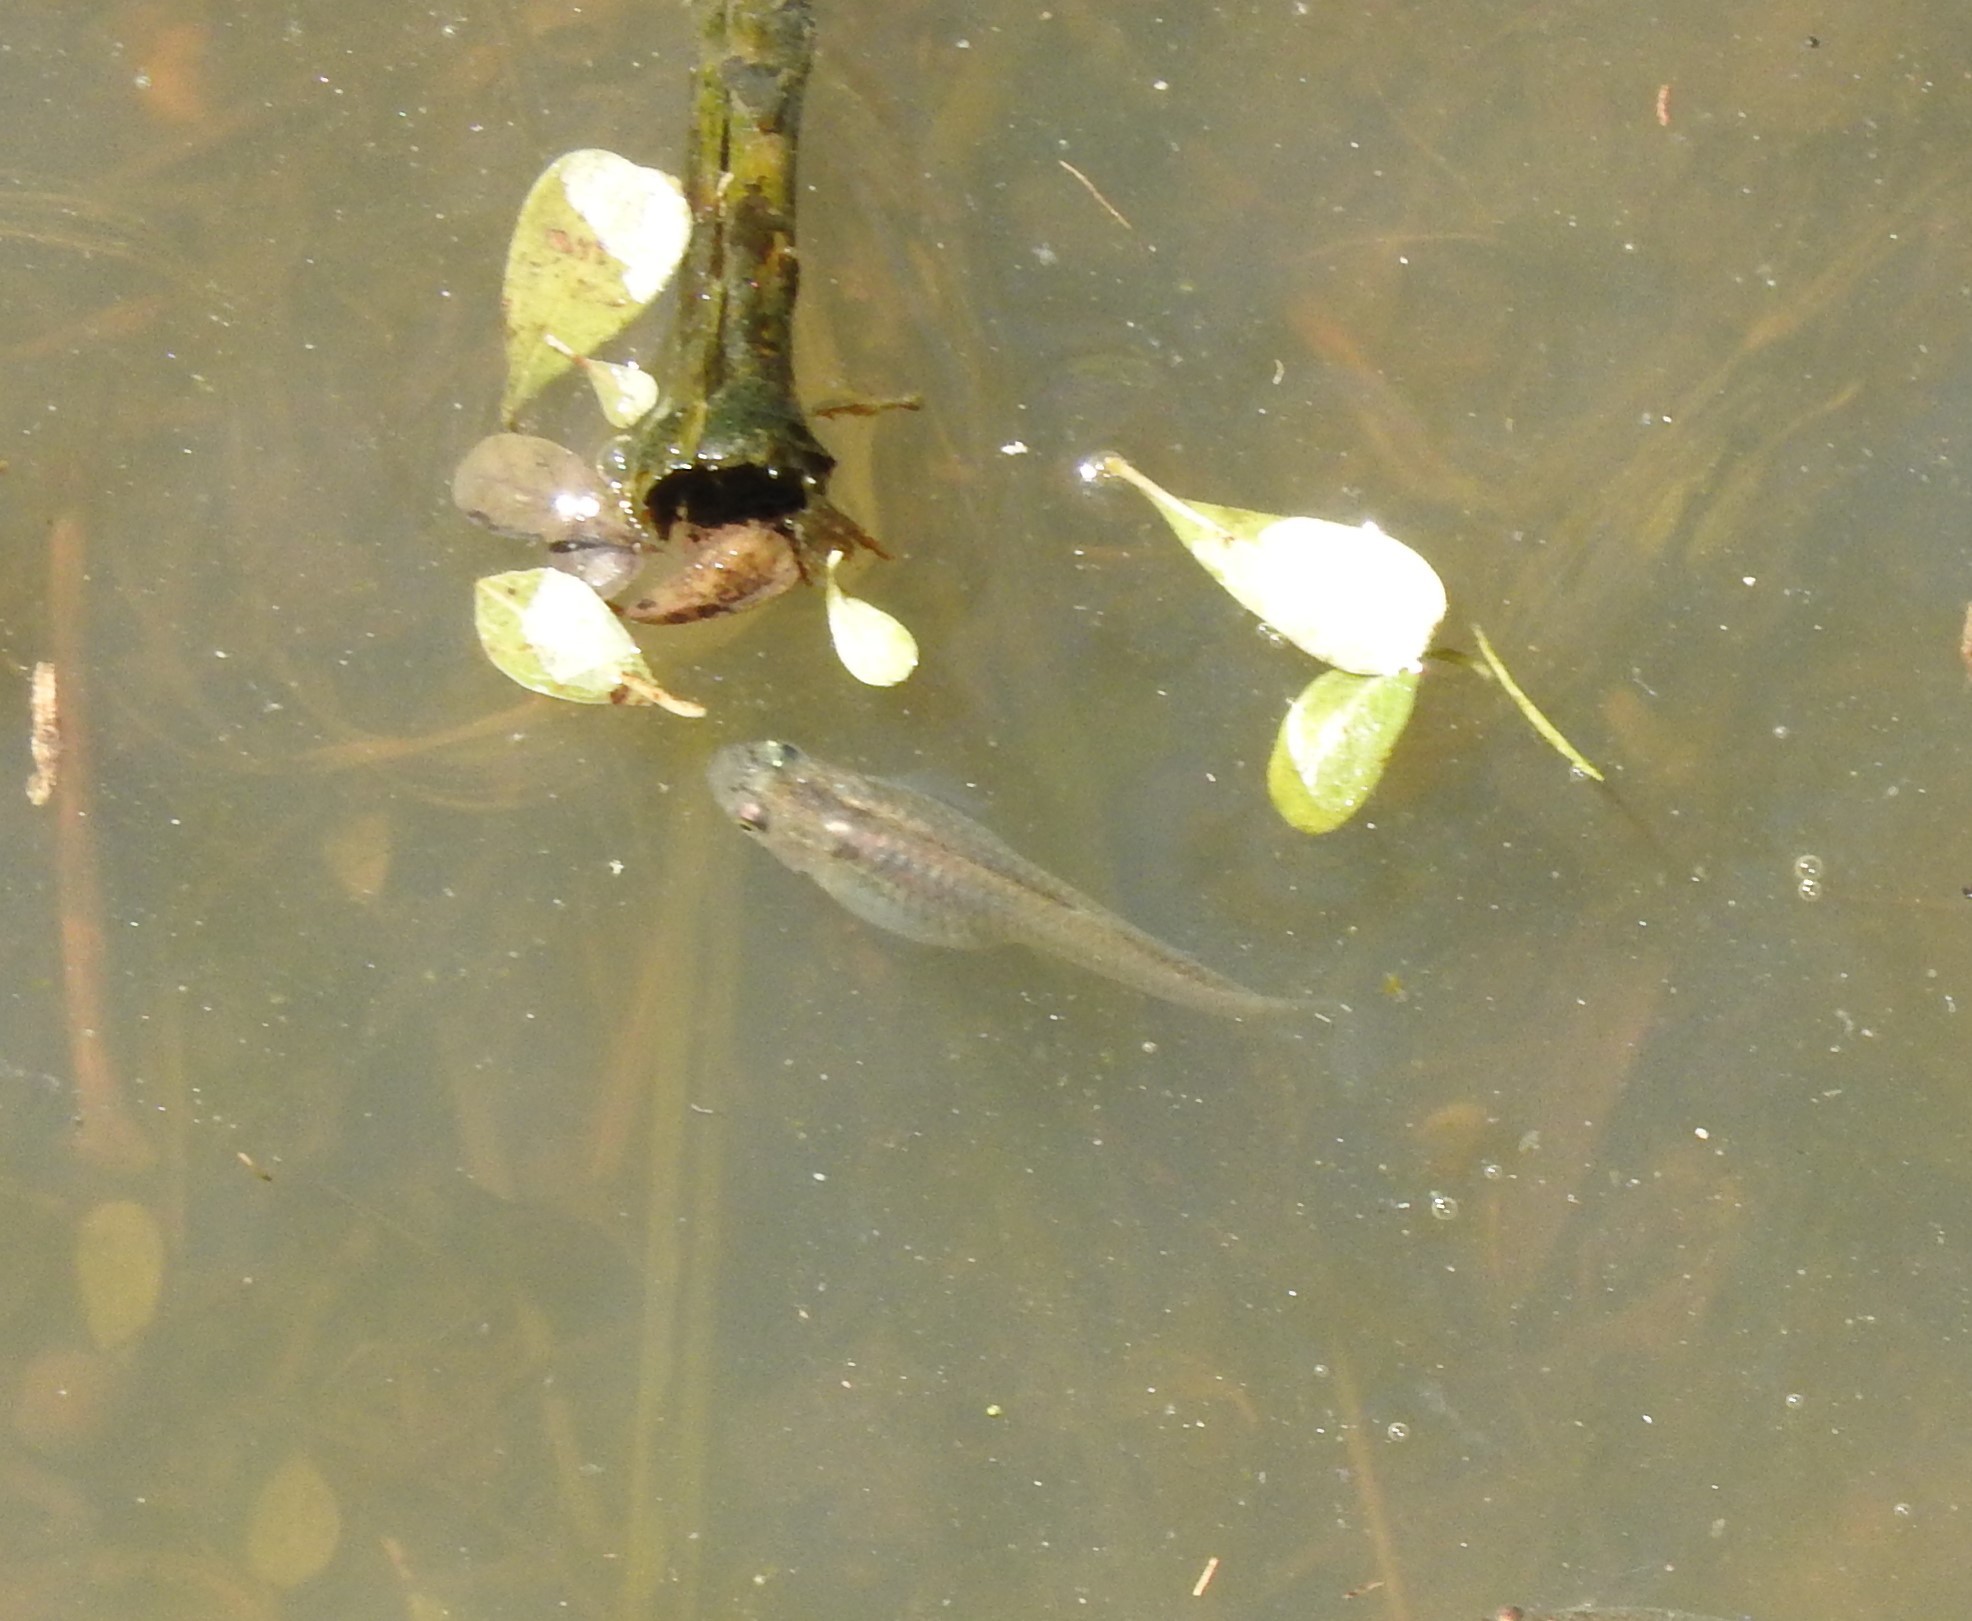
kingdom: Animalia
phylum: Chordata
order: Cyprinodontiformes
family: Poeciliidae
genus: Gambusia
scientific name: Gambusia affinis
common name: Mosquitofish
